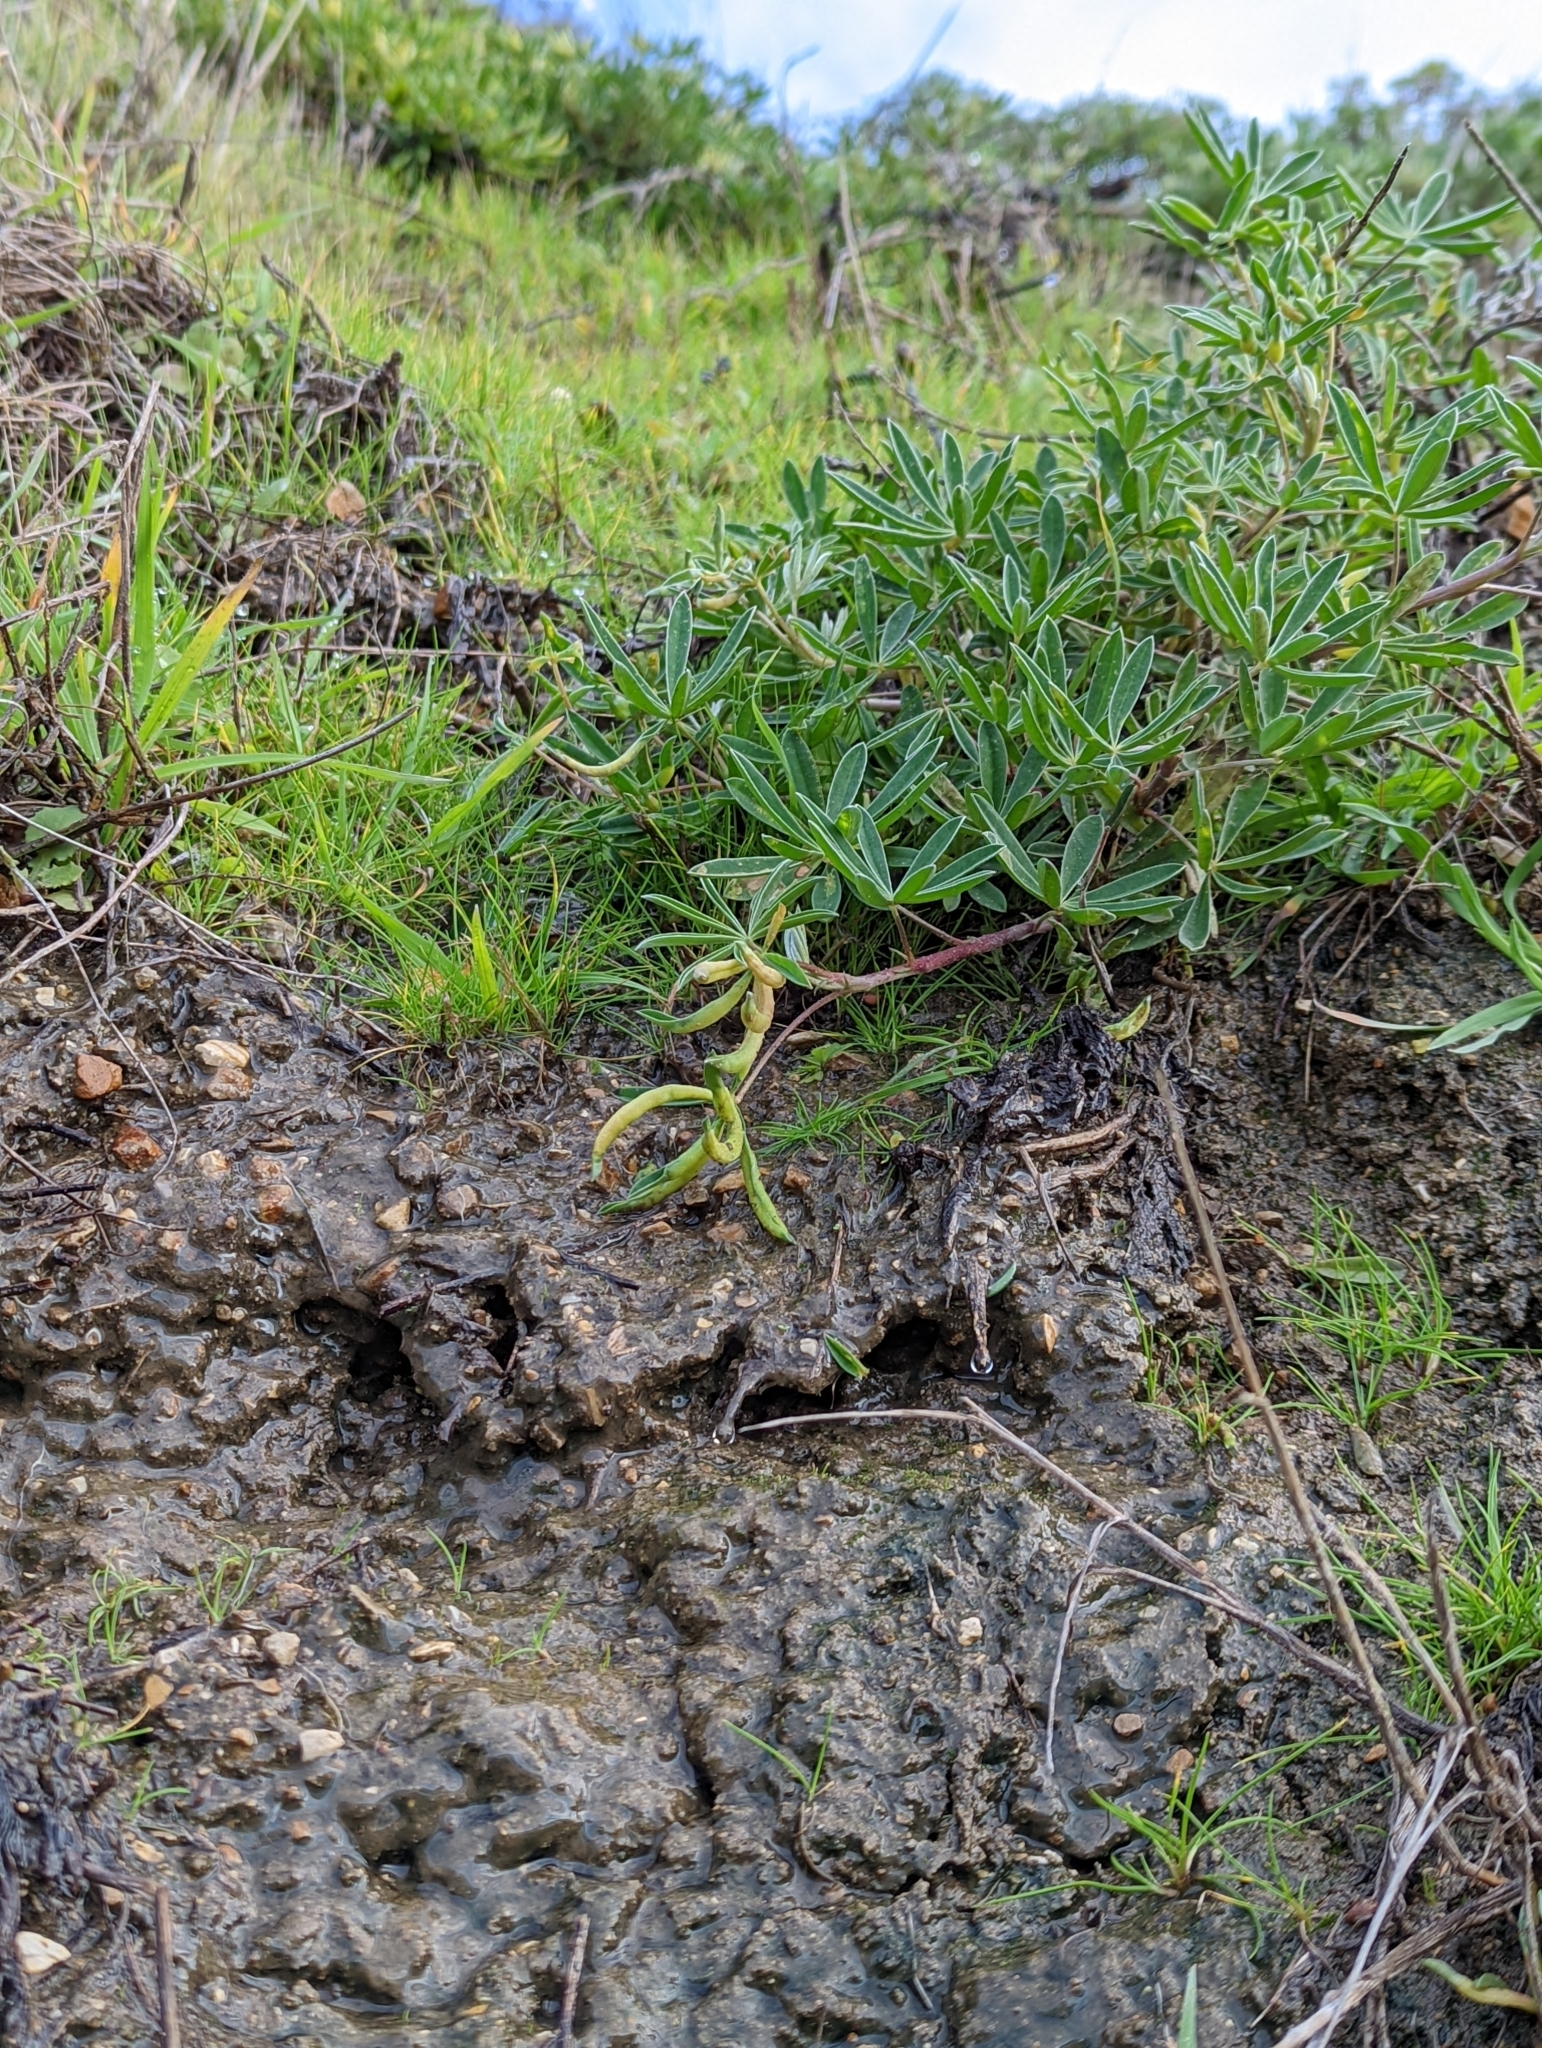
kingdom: Animalia
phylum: Arthropoda
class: Insecta
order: Diptera
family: Cecidomyiidae
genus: Dasineura
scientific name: Dasineura lupinorum
